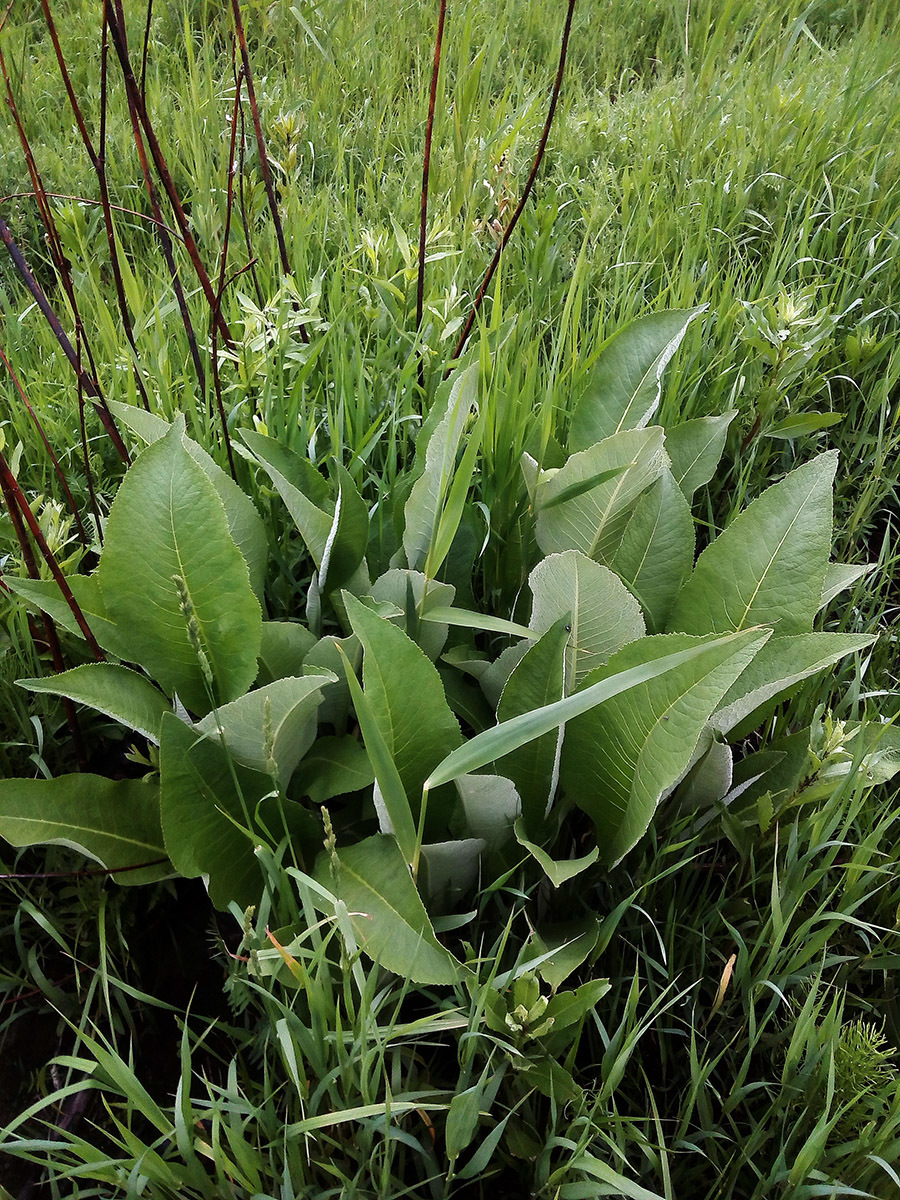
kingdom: Plantae
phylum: Tracheophyta
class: Magnoliopsida
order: Asterales
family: Asteraceae
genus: Inula
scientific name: Inula helenium
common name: Elecampane
